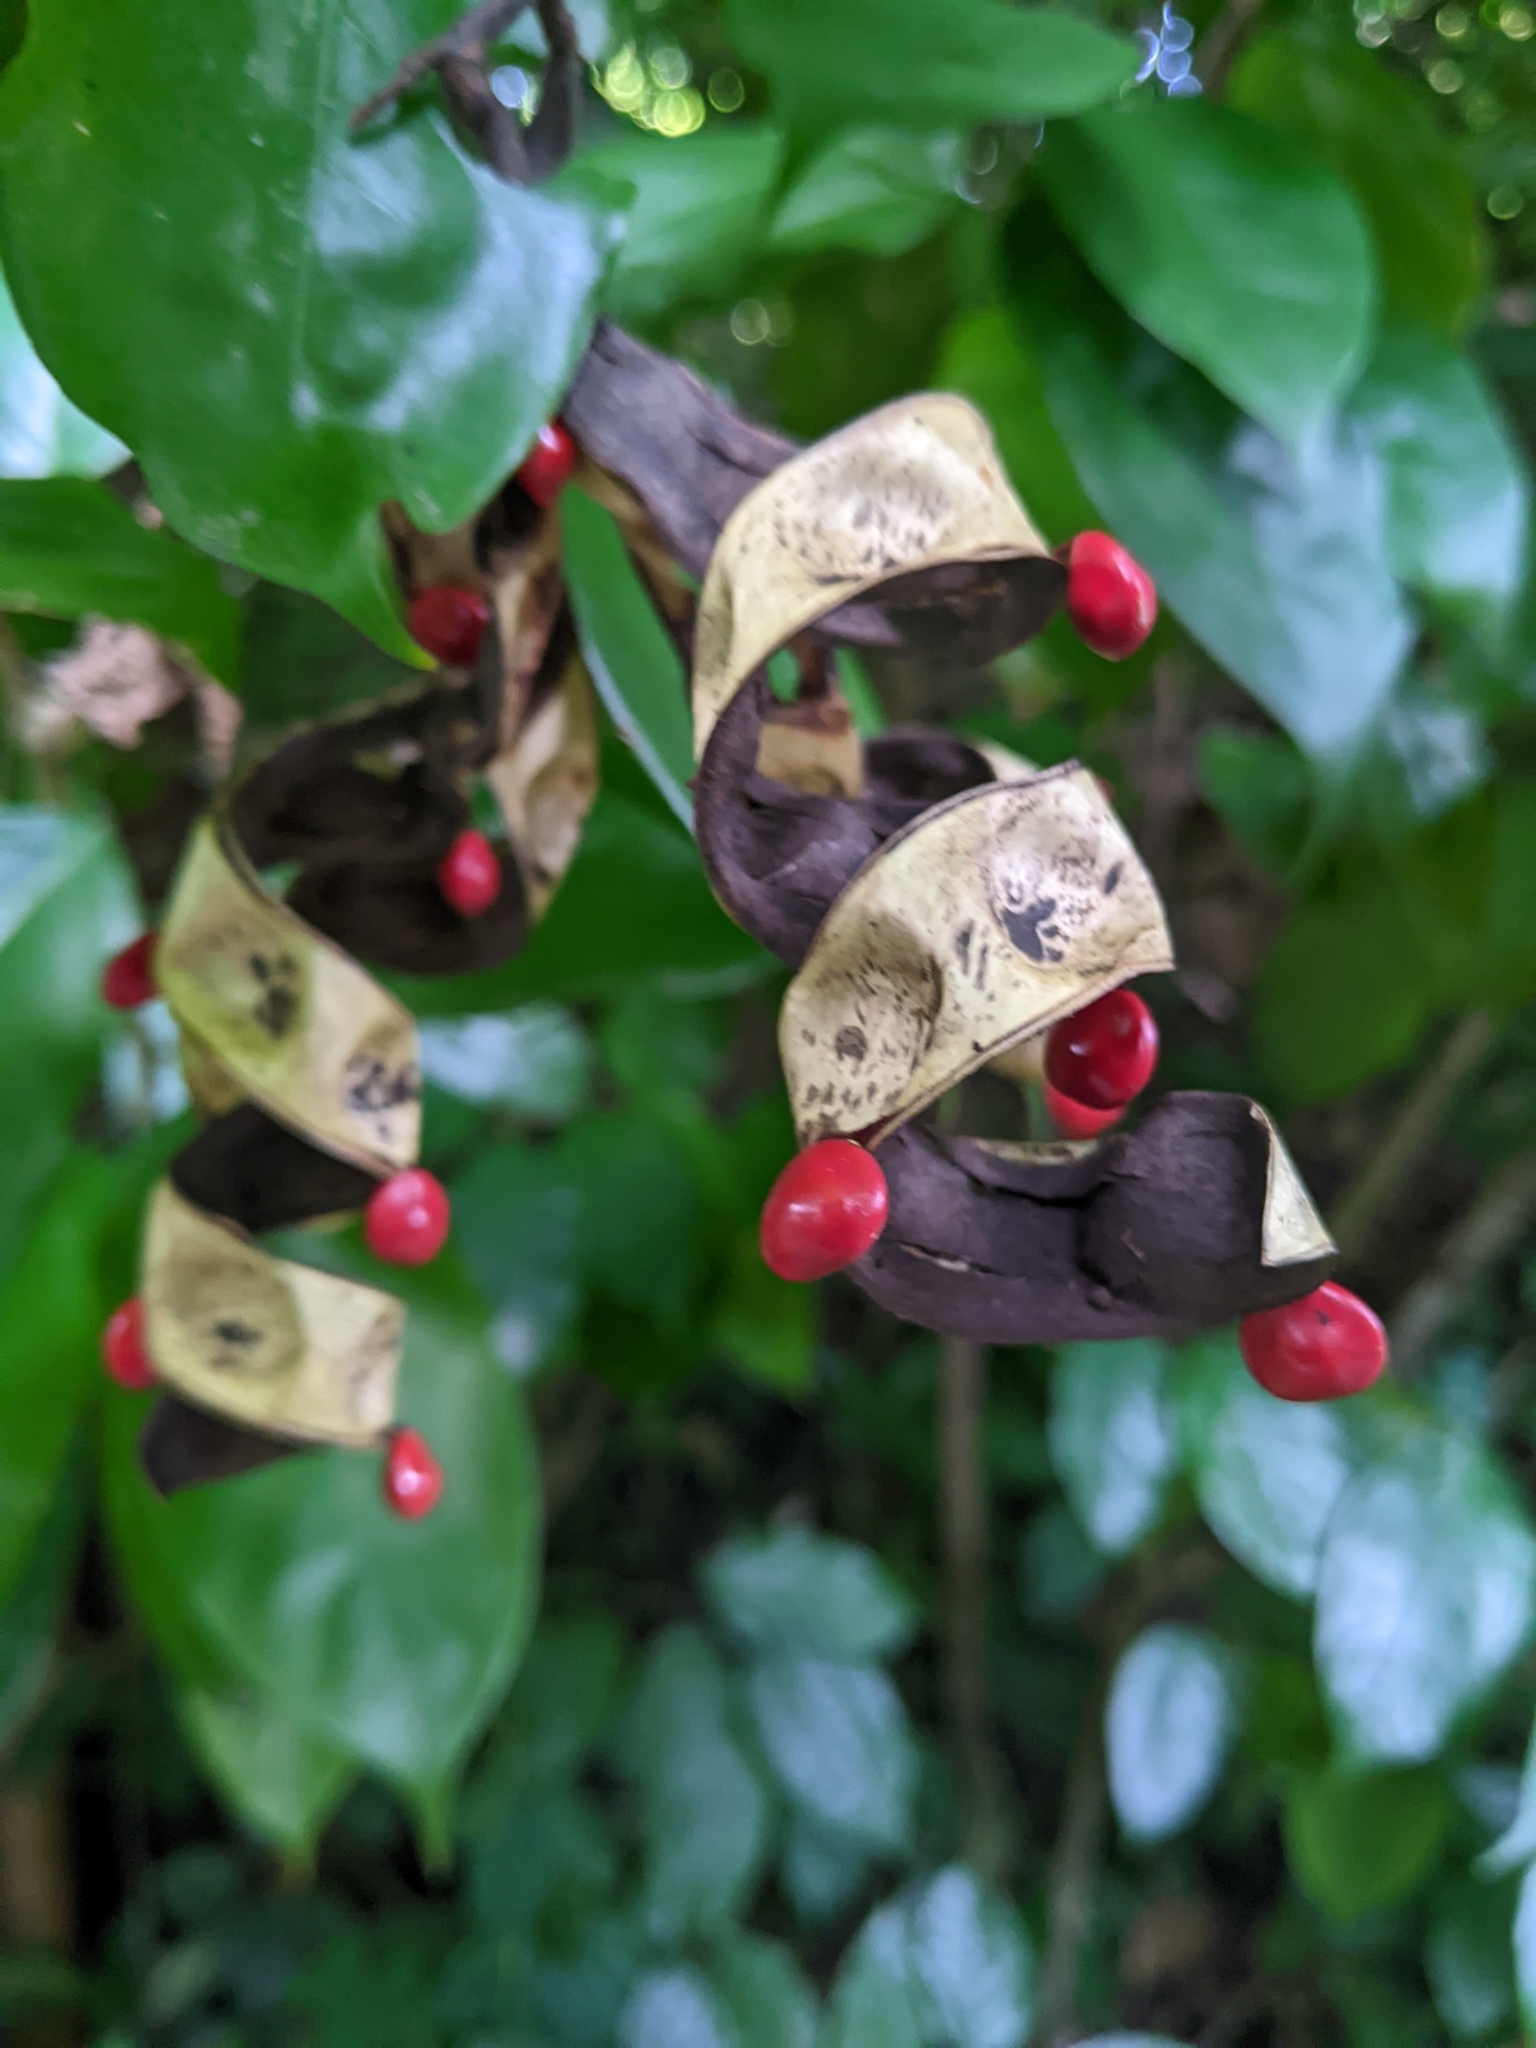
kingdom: Plantae
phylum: Tracheophyta
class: Magnoliopsida
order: Fabales
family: Fabaceae
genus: Adenanthera
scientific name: Adenanthera pavonina
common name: Red beadtree
